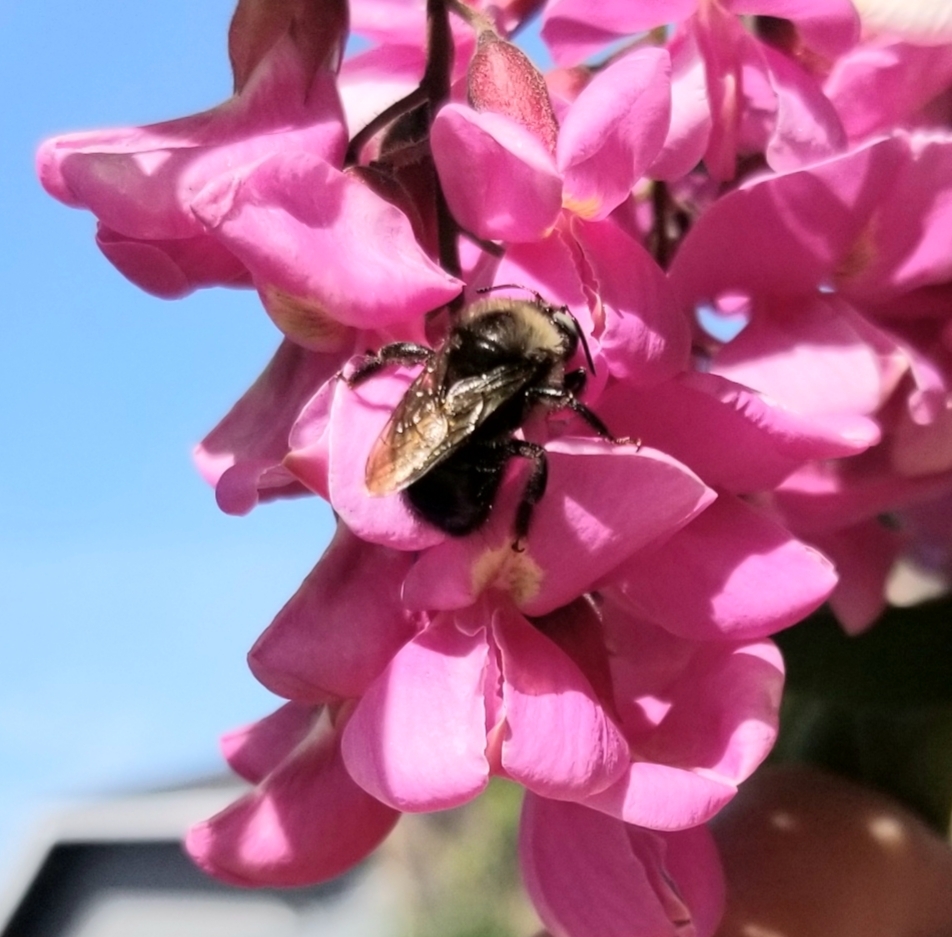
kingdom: Animalia
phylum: Arthropoda
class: Insecta
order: Hymenoptera
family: Apidae
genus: Xylocopa
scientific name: Xylocopa tabaniformis
